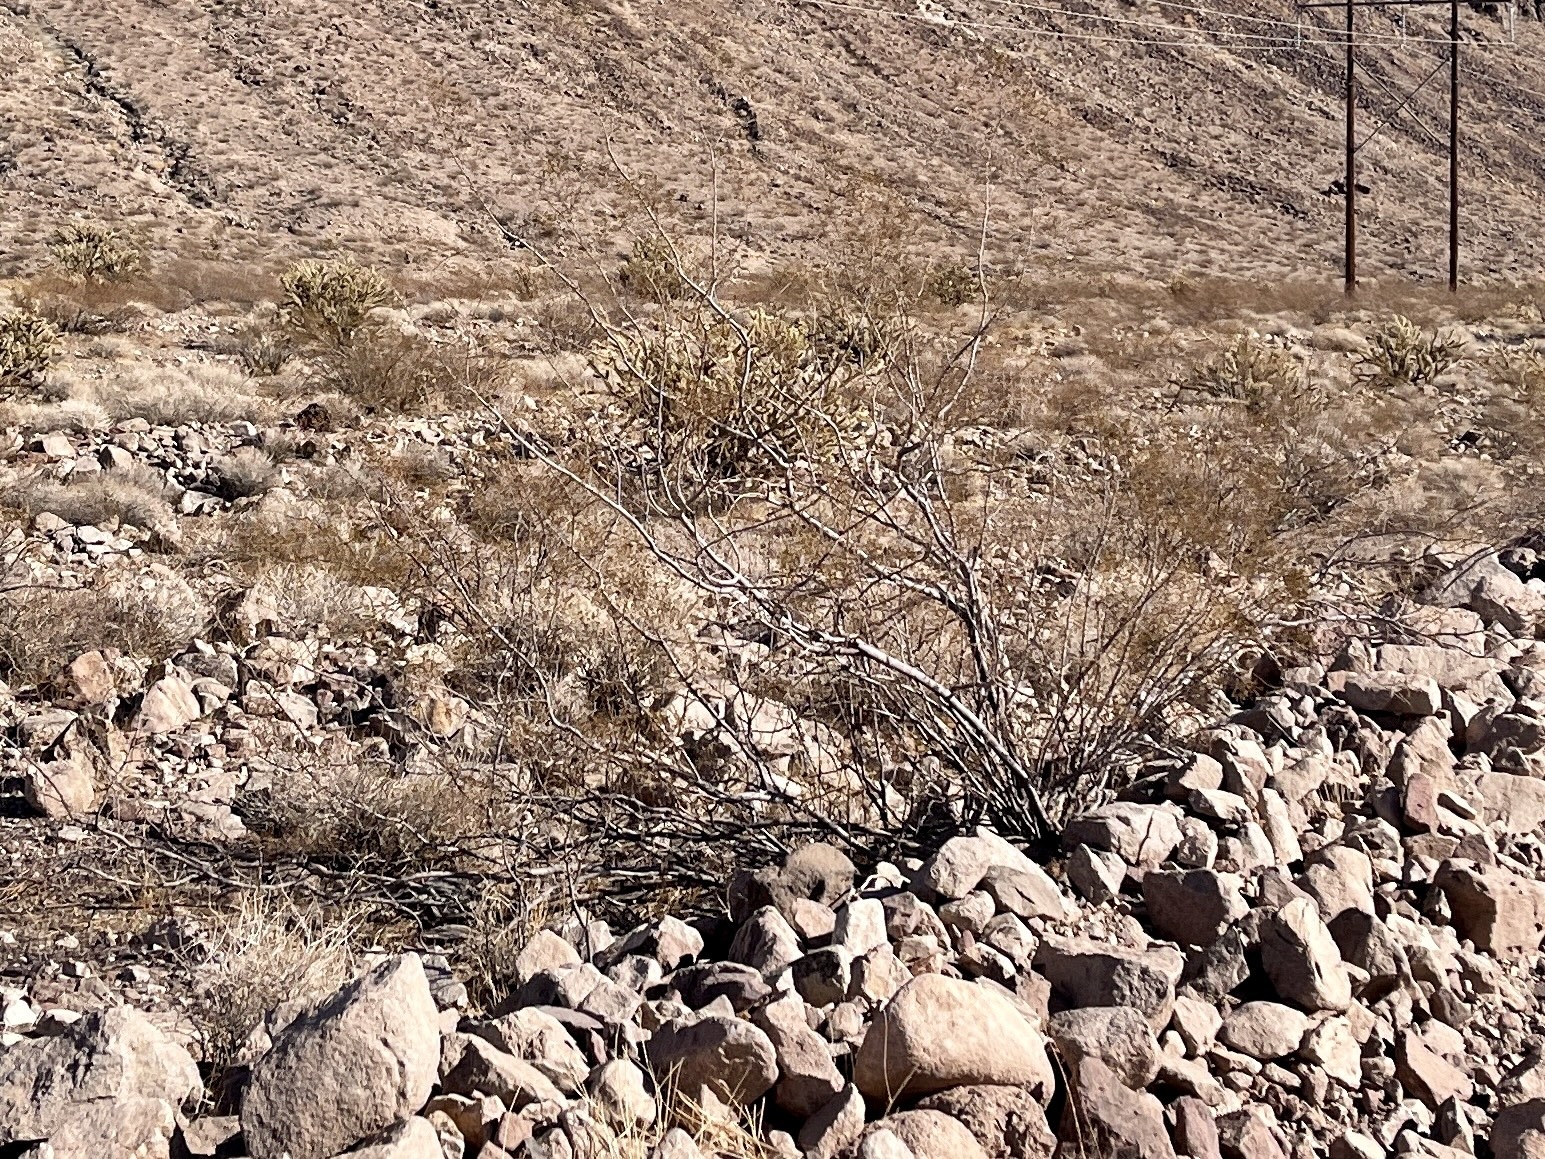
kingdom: Plantae
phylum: Tracheophyta
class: Magnoliopsida
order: Zygophyllales
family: Zygophyllaceae
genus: Larrea
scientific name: Larrea tridentata
